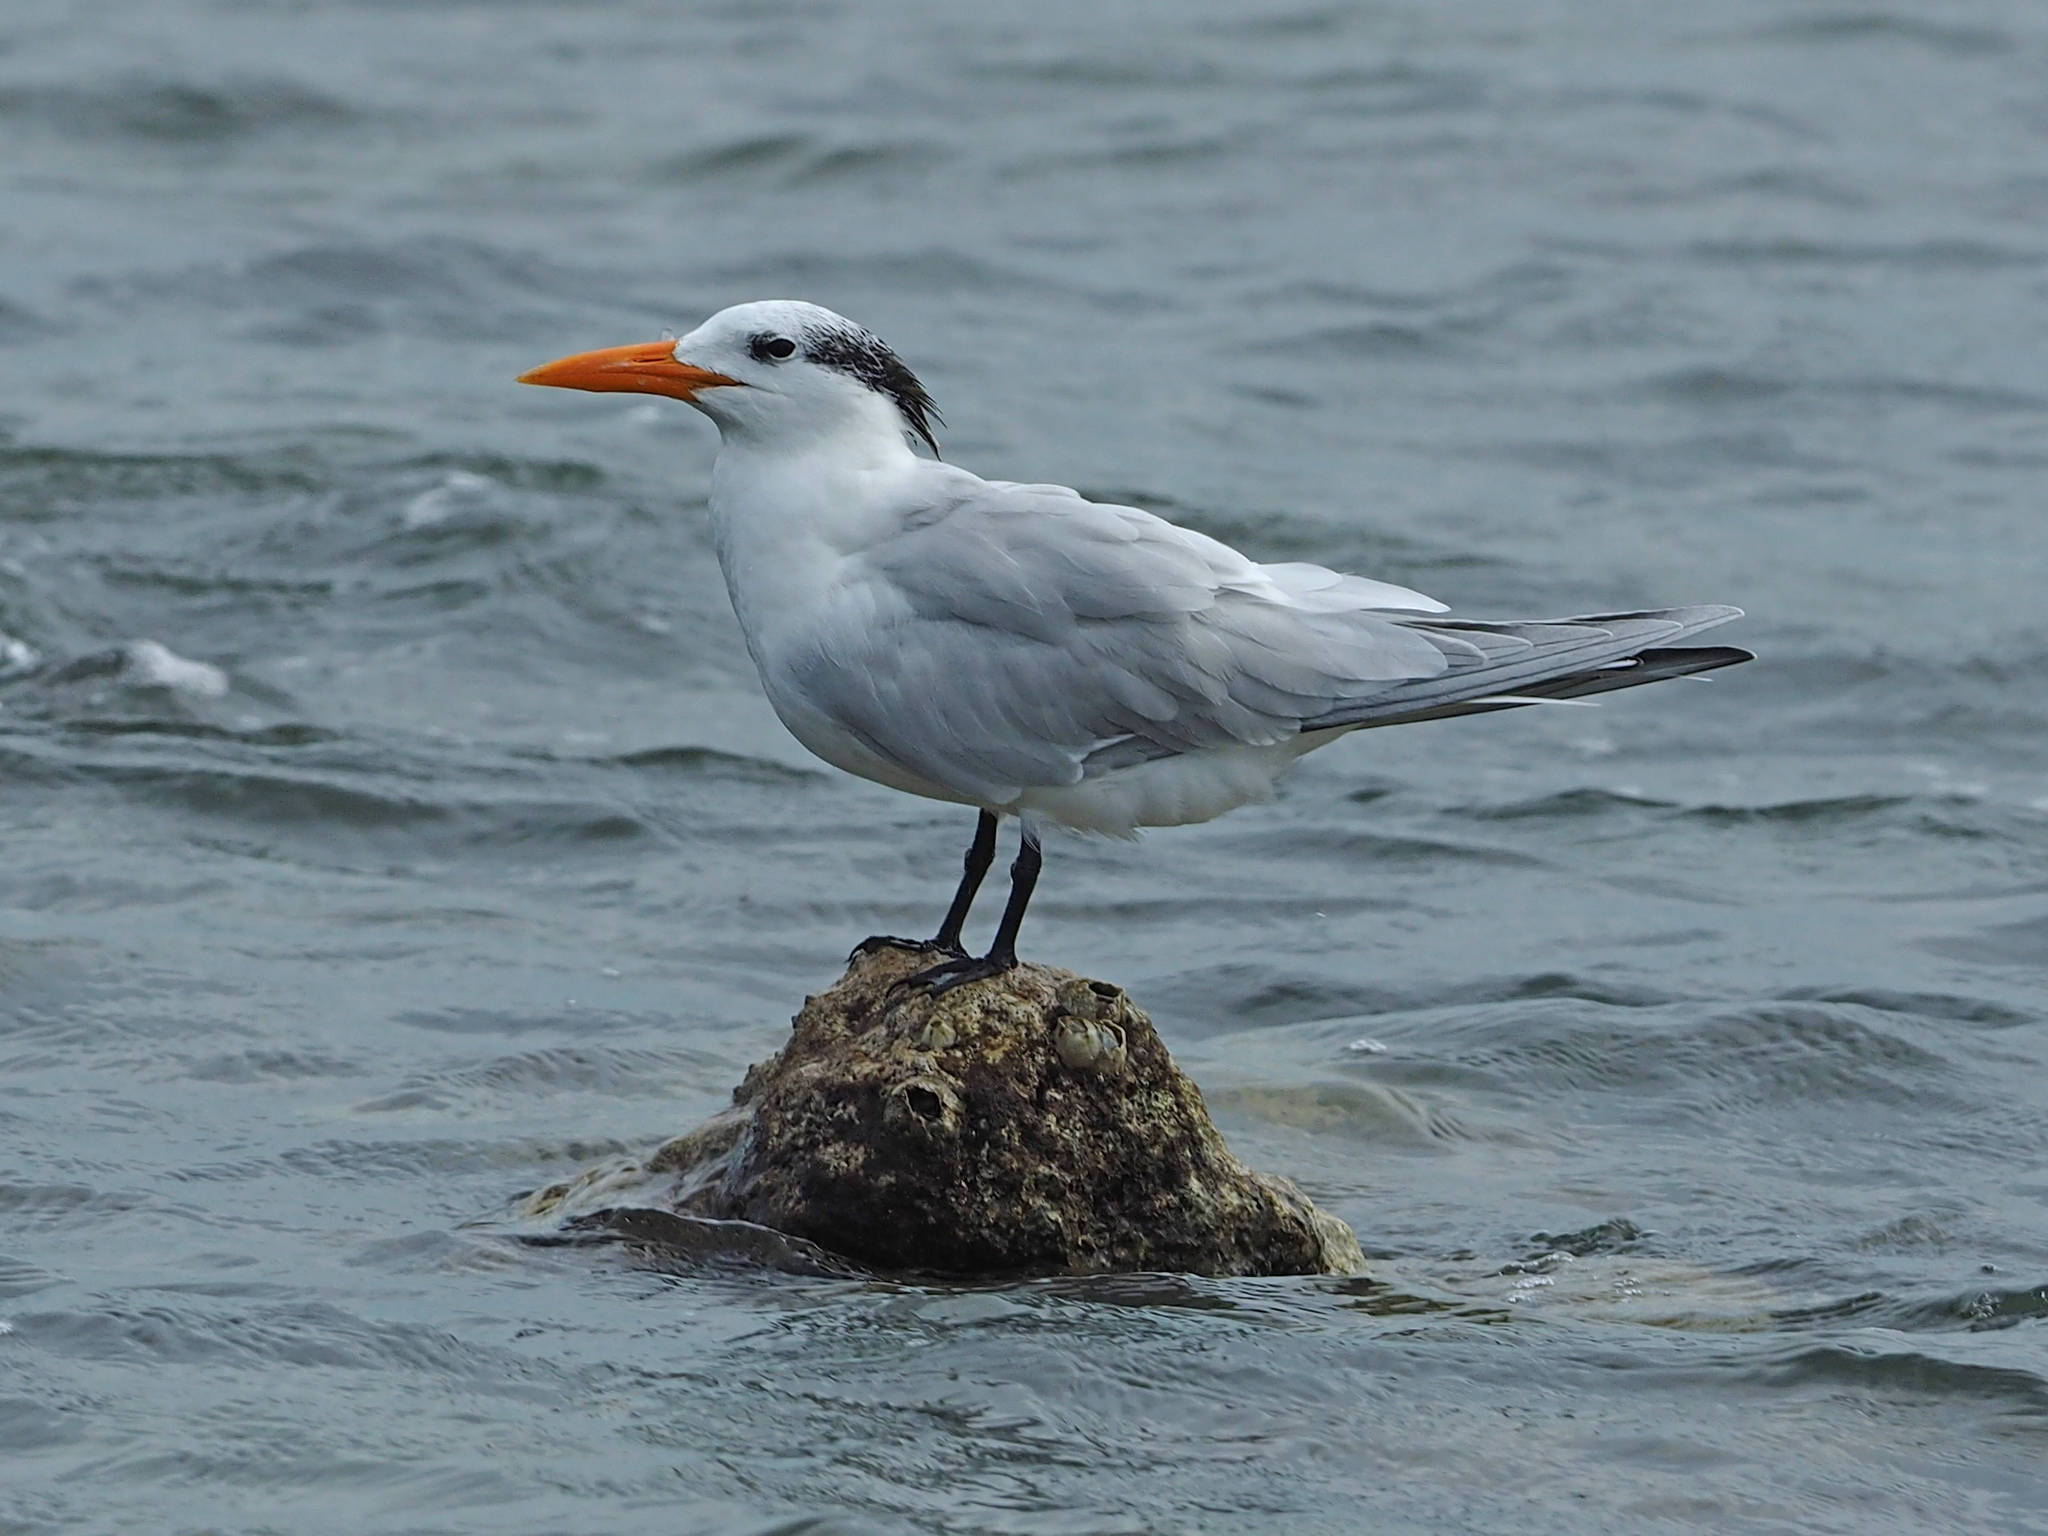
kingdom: Animalia
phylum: Chordata
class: Aves
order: Charadriiformes
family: Laridae
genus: Thalasseus
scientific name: Thalasseus maximus
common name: Royal tern
